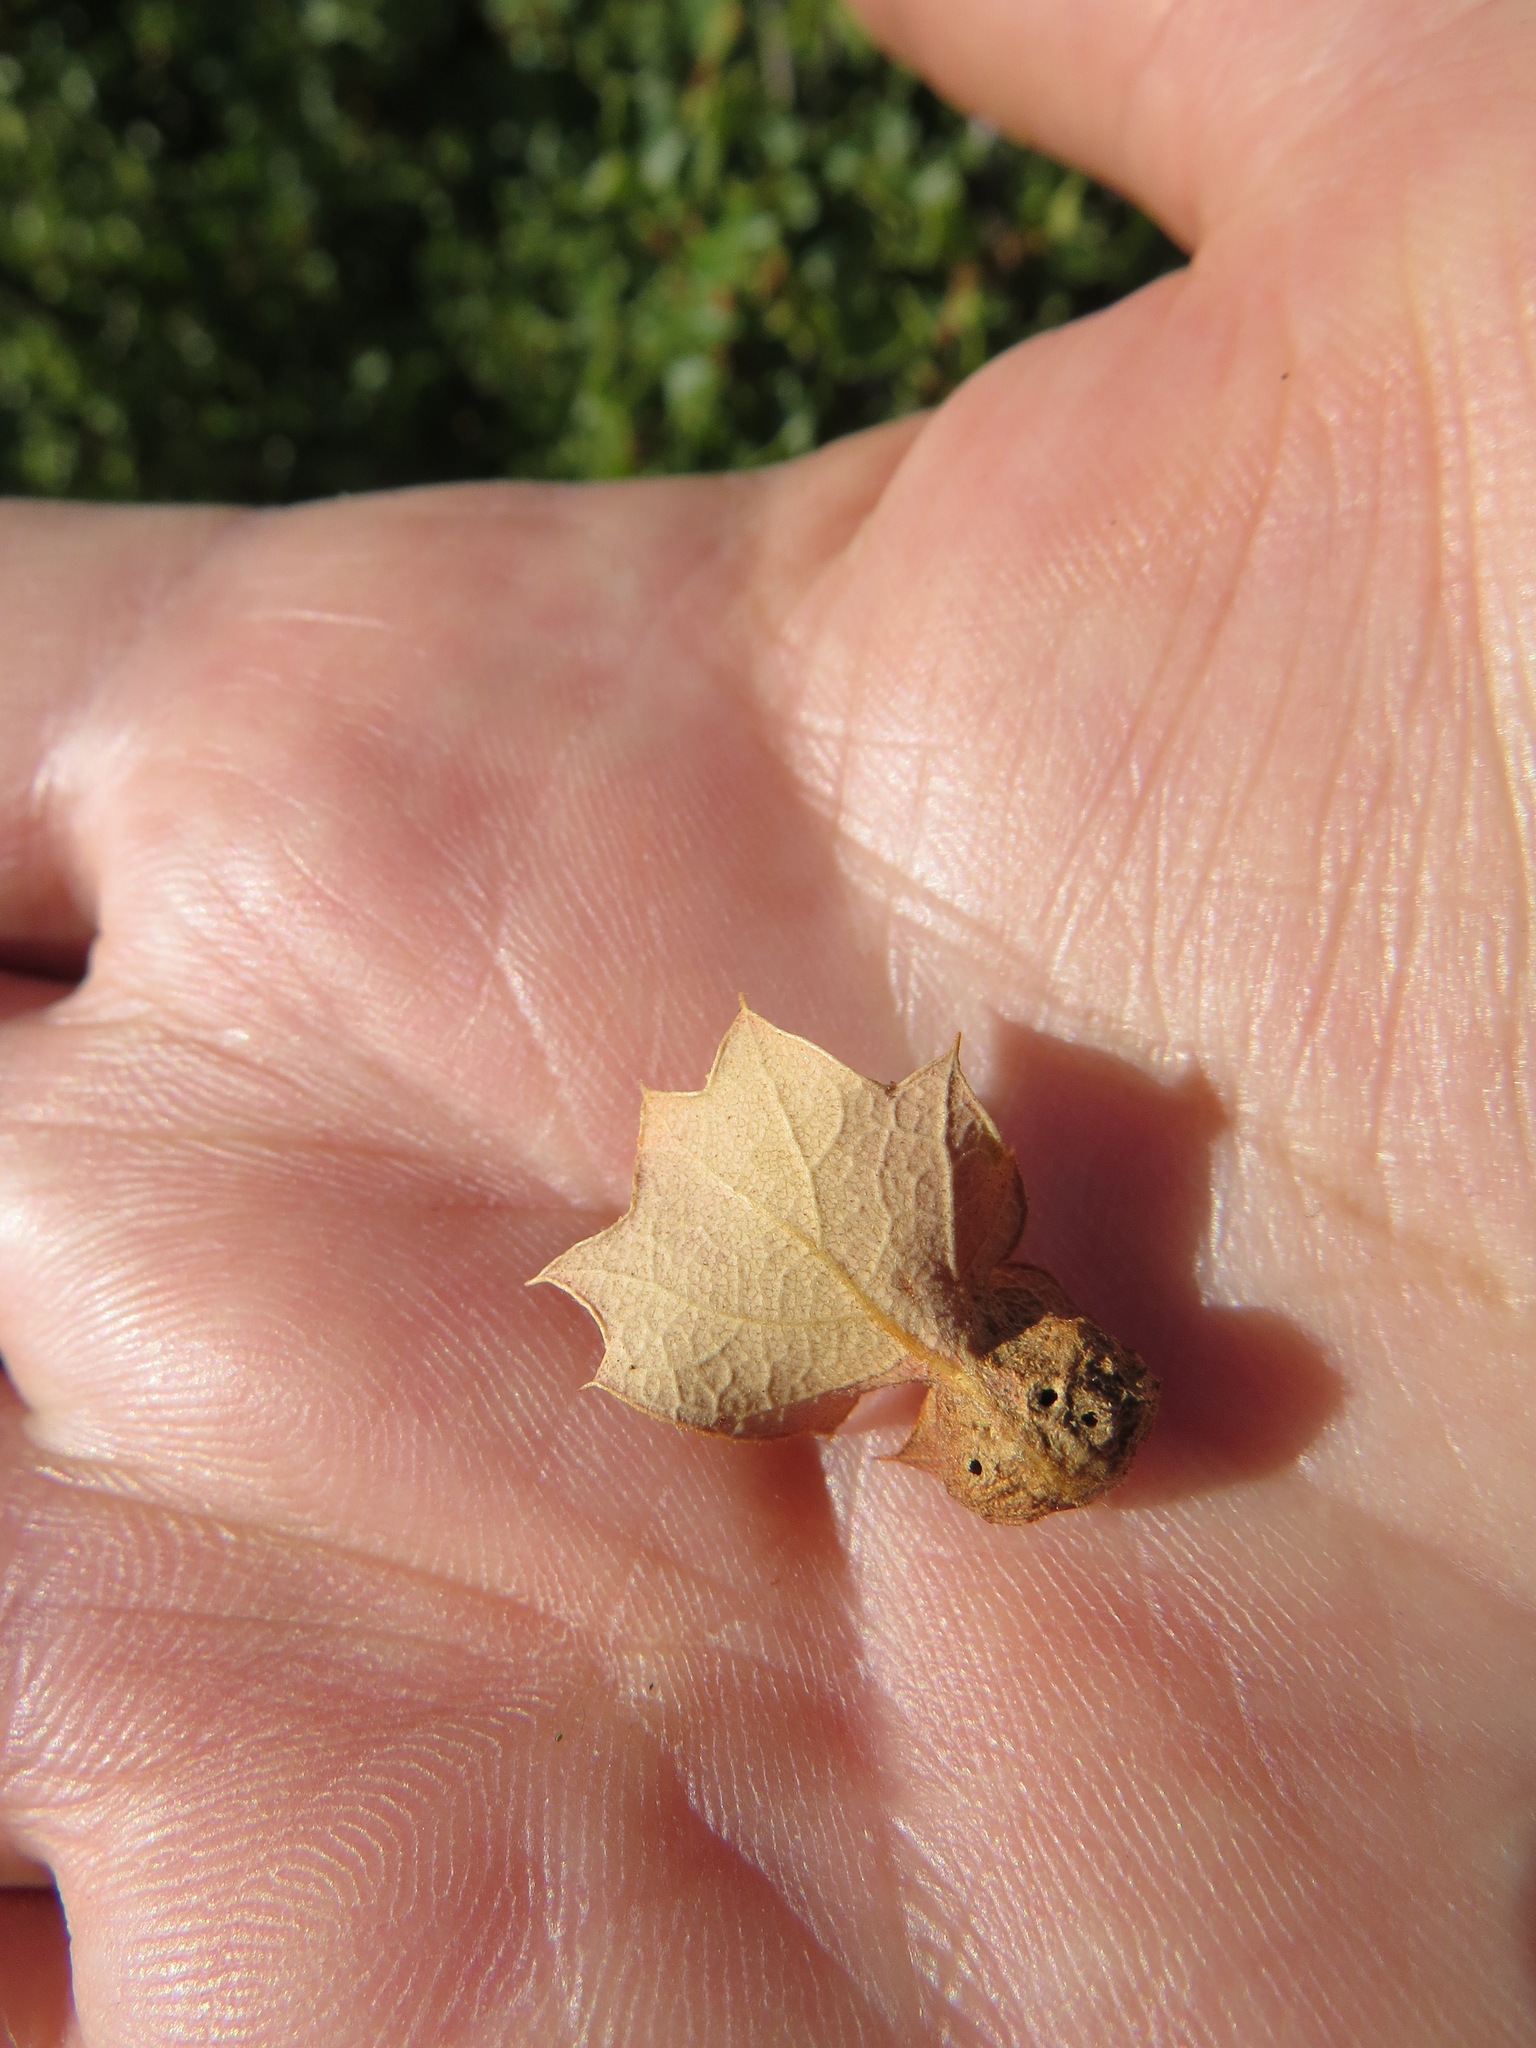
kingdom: Animalia
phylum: Arthropoda
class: Insecta
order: Hymenoptera
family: Cynipidae
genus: Neuroterus
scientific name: Neuroterus
